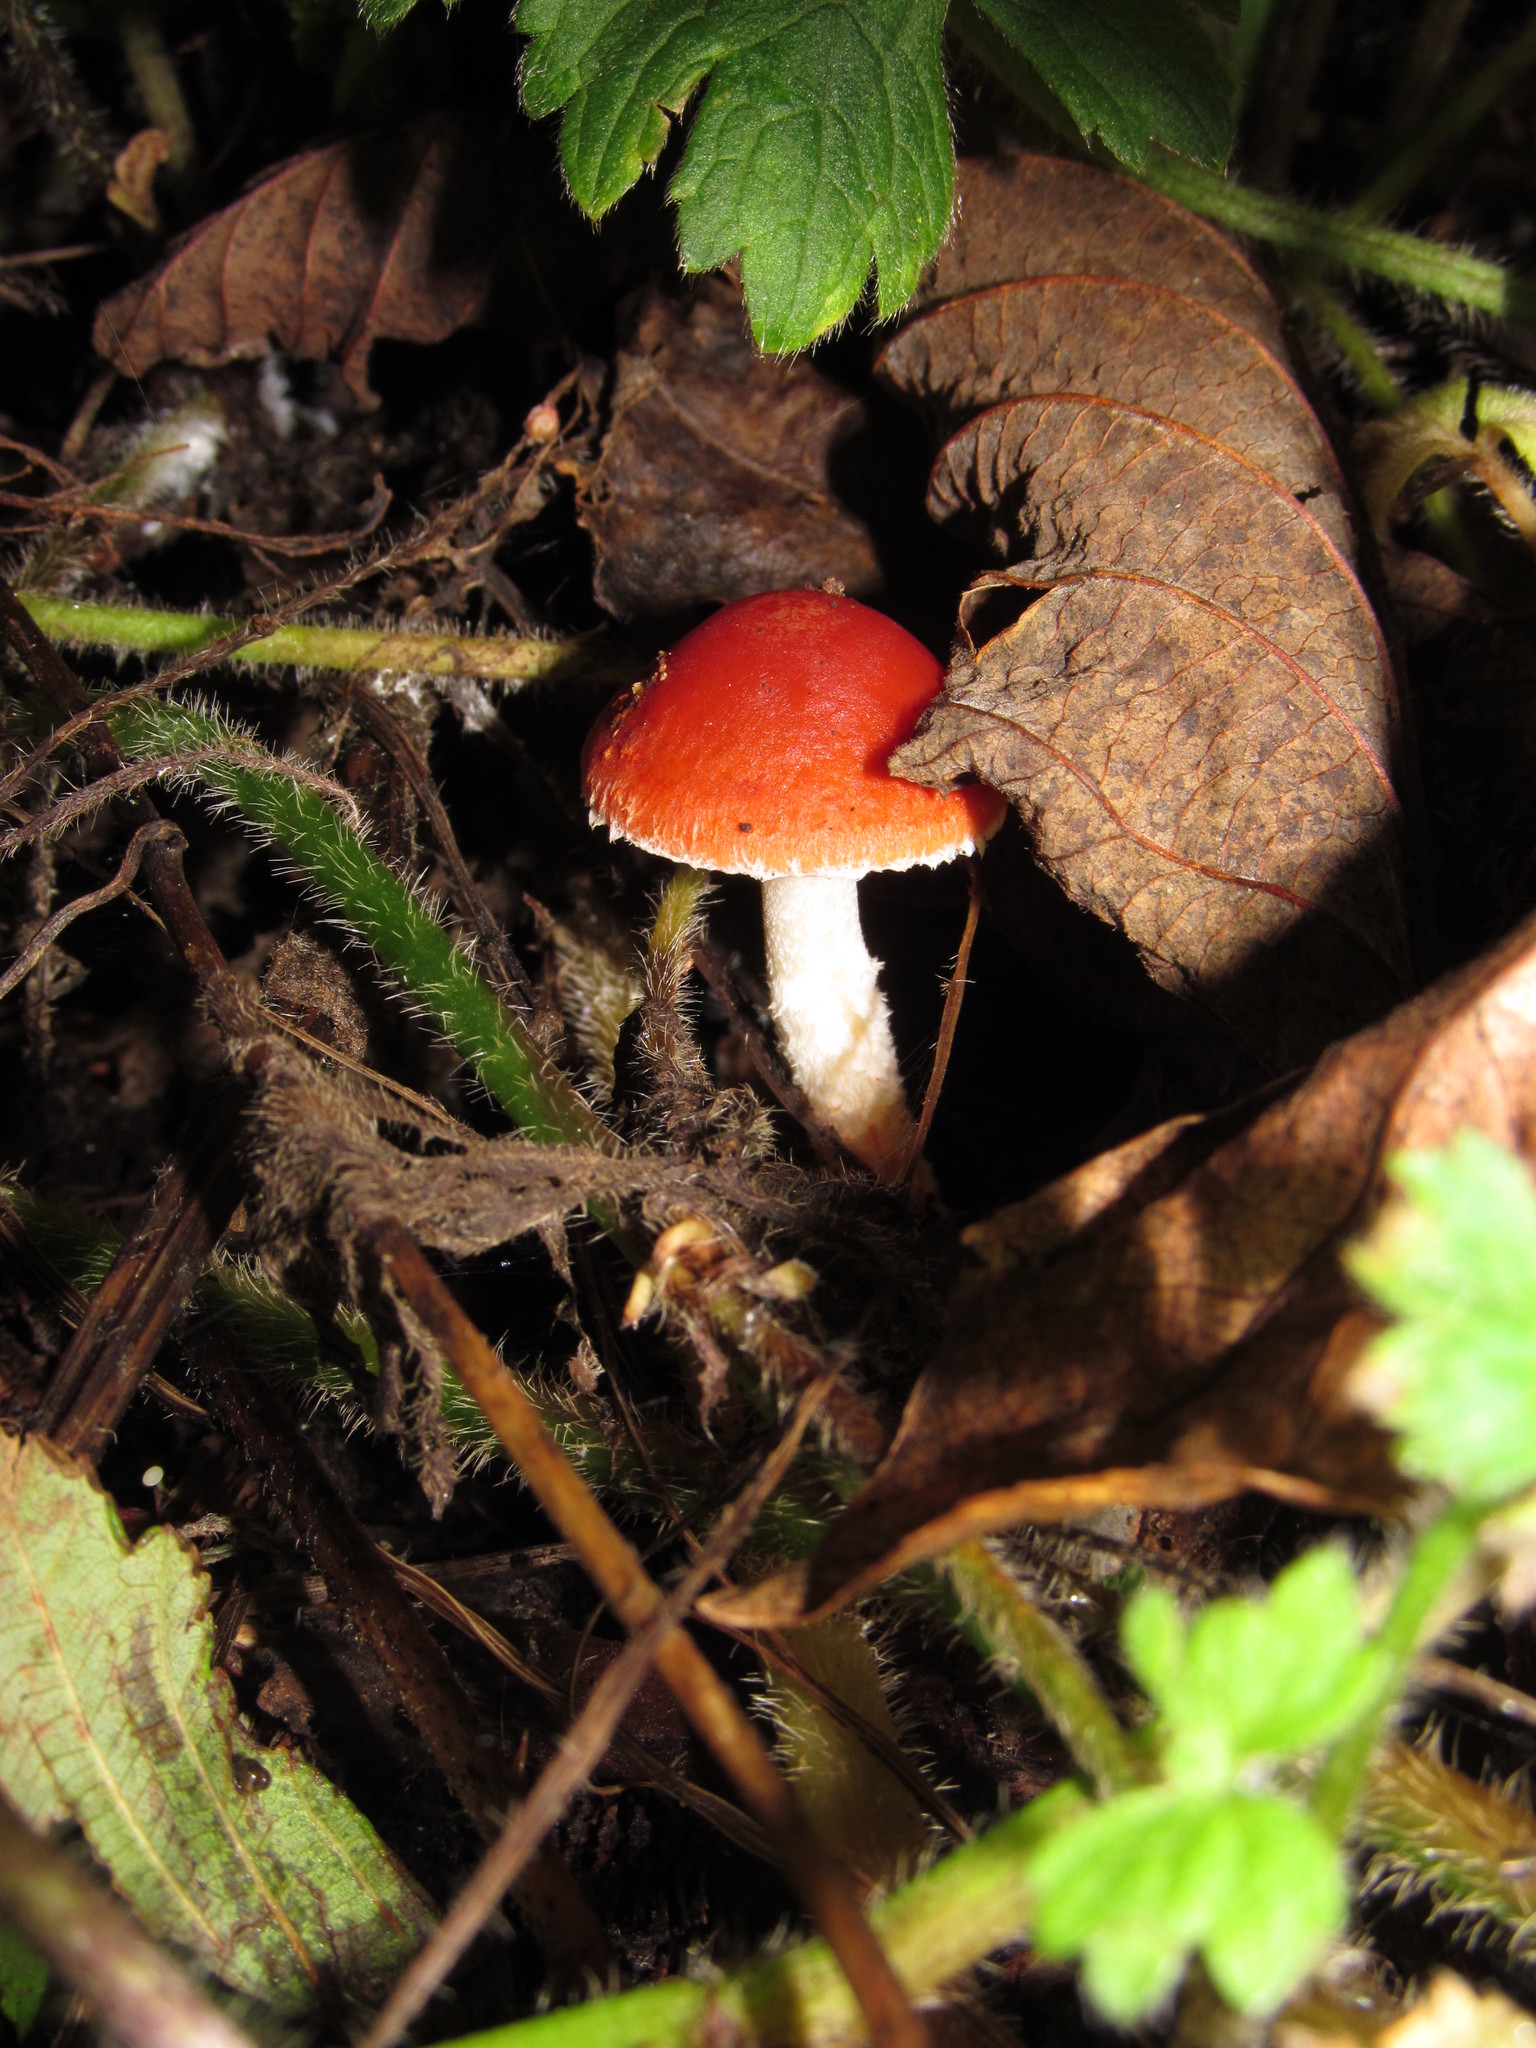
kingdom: Fungi
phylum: Basidiomycota
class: Agaricomycetes
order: Agaricales
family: Strophariaceae
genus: Leratiomyces
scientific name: Leratiomyces ceres
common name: Redlead roundhead
